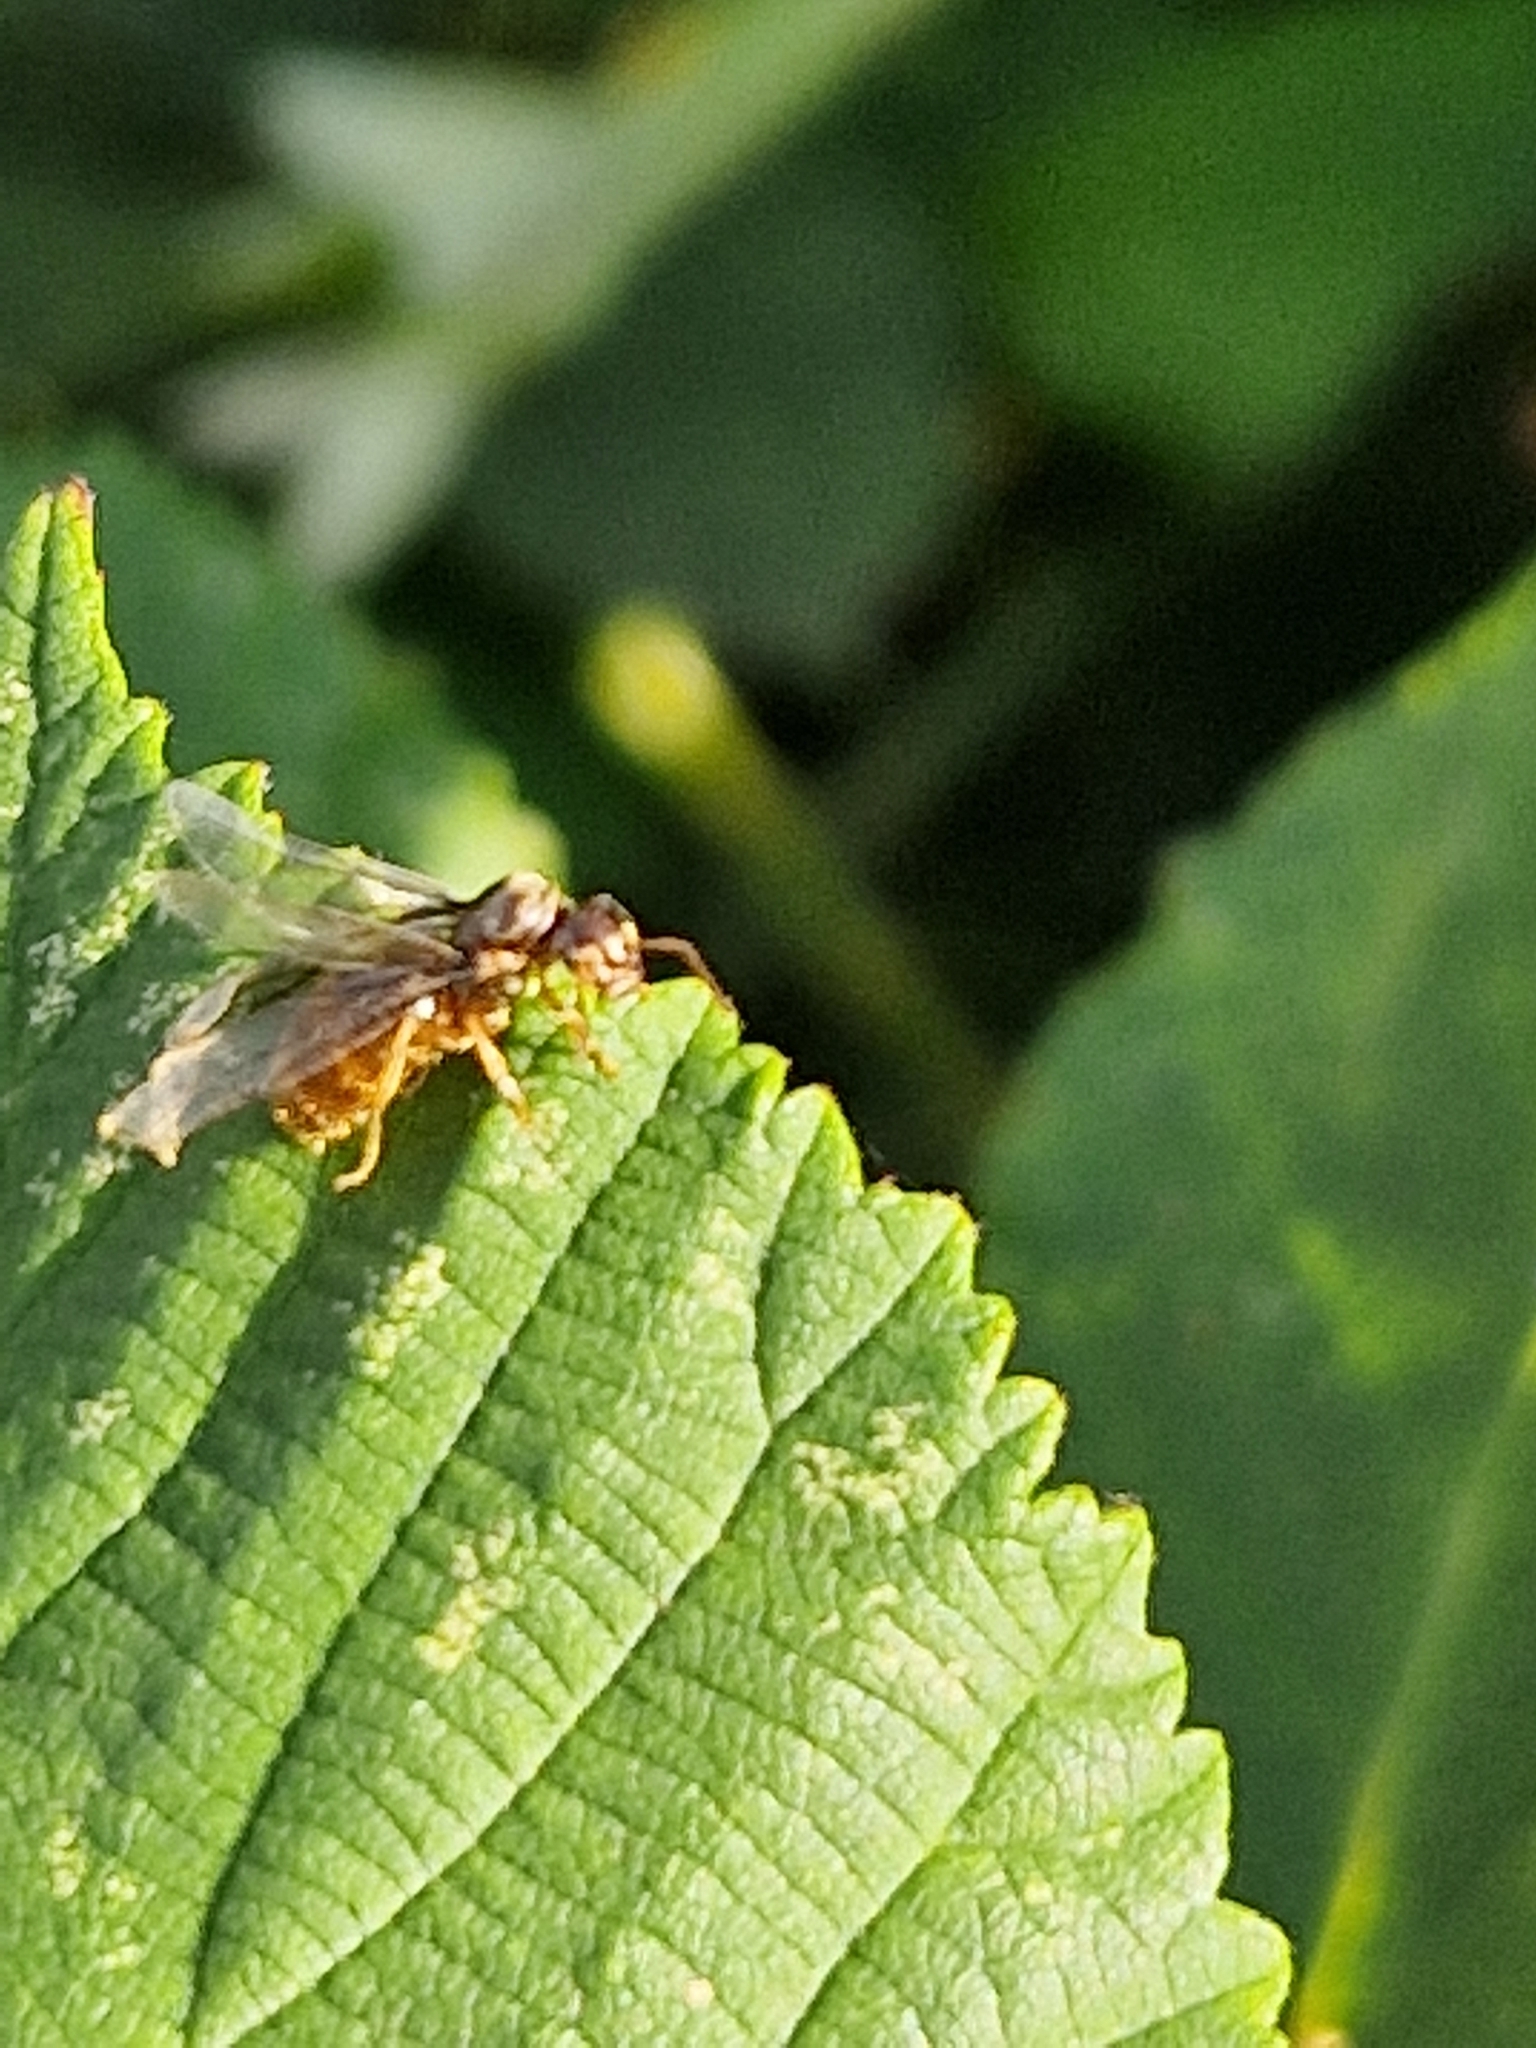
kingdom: Animalia
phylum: Arthropoda
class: Insecta
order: Hymenoptera
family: Formicidae
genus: Lasius
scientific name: Lasius flavus
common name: Blond field ant
